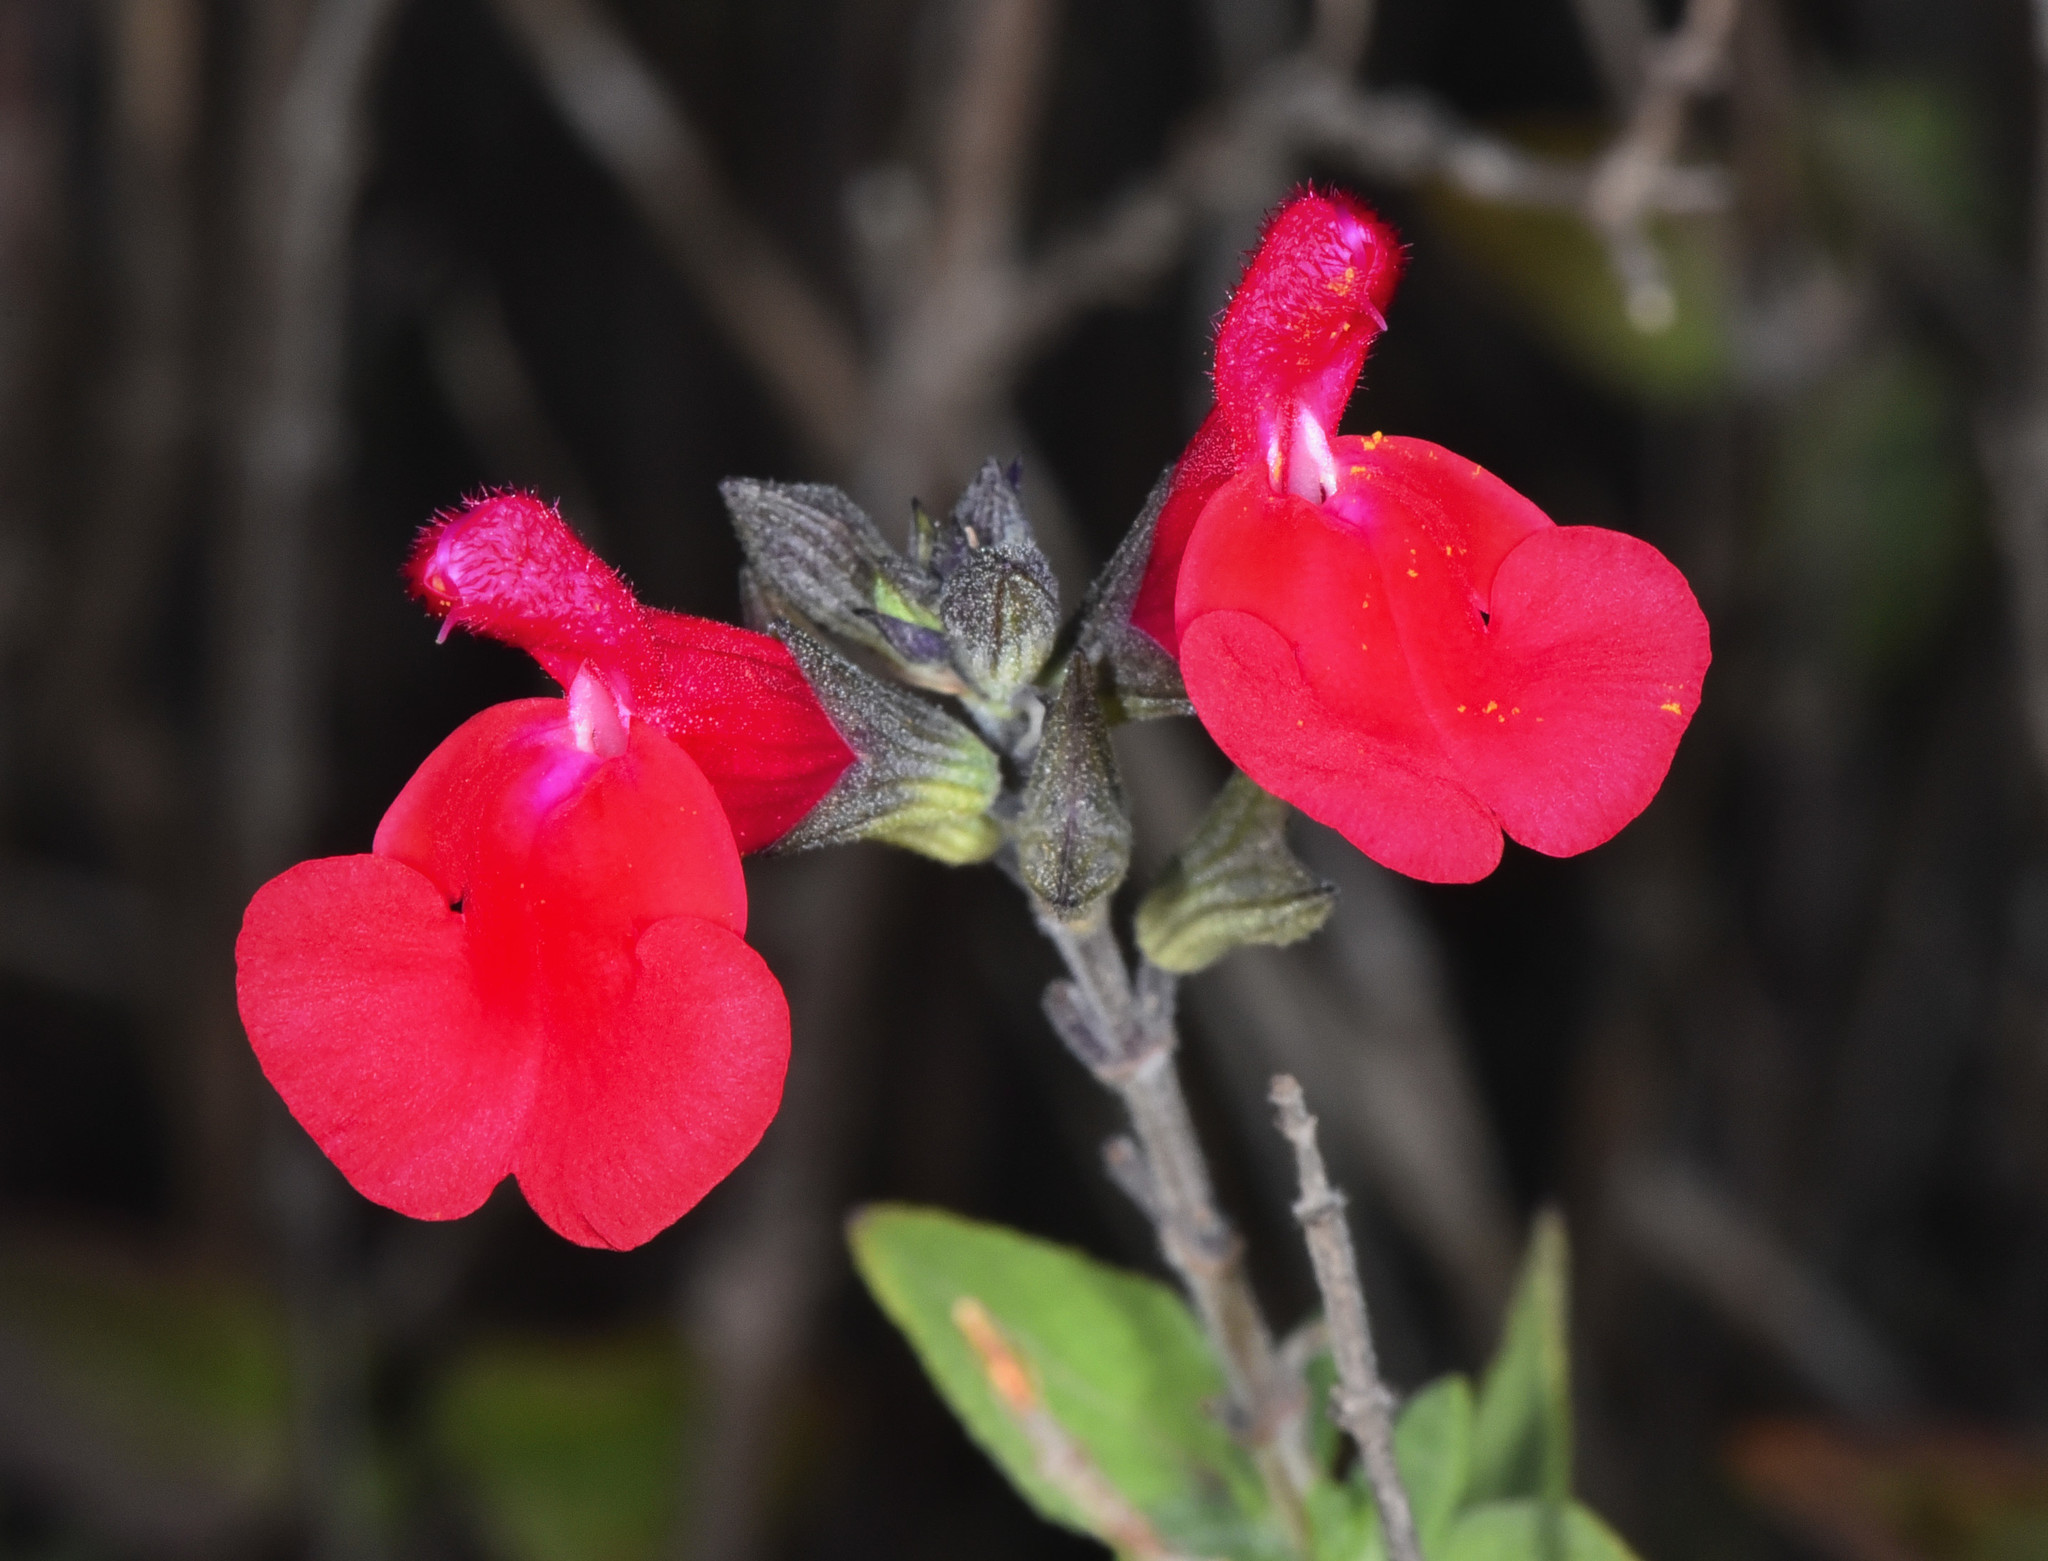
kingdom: Plantae
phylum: Tracheophyta
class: Magnoliopsida
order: Lamiales
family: Lamiaceae
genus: Salvia
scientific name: Salvia microphylla
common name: Baby sage
